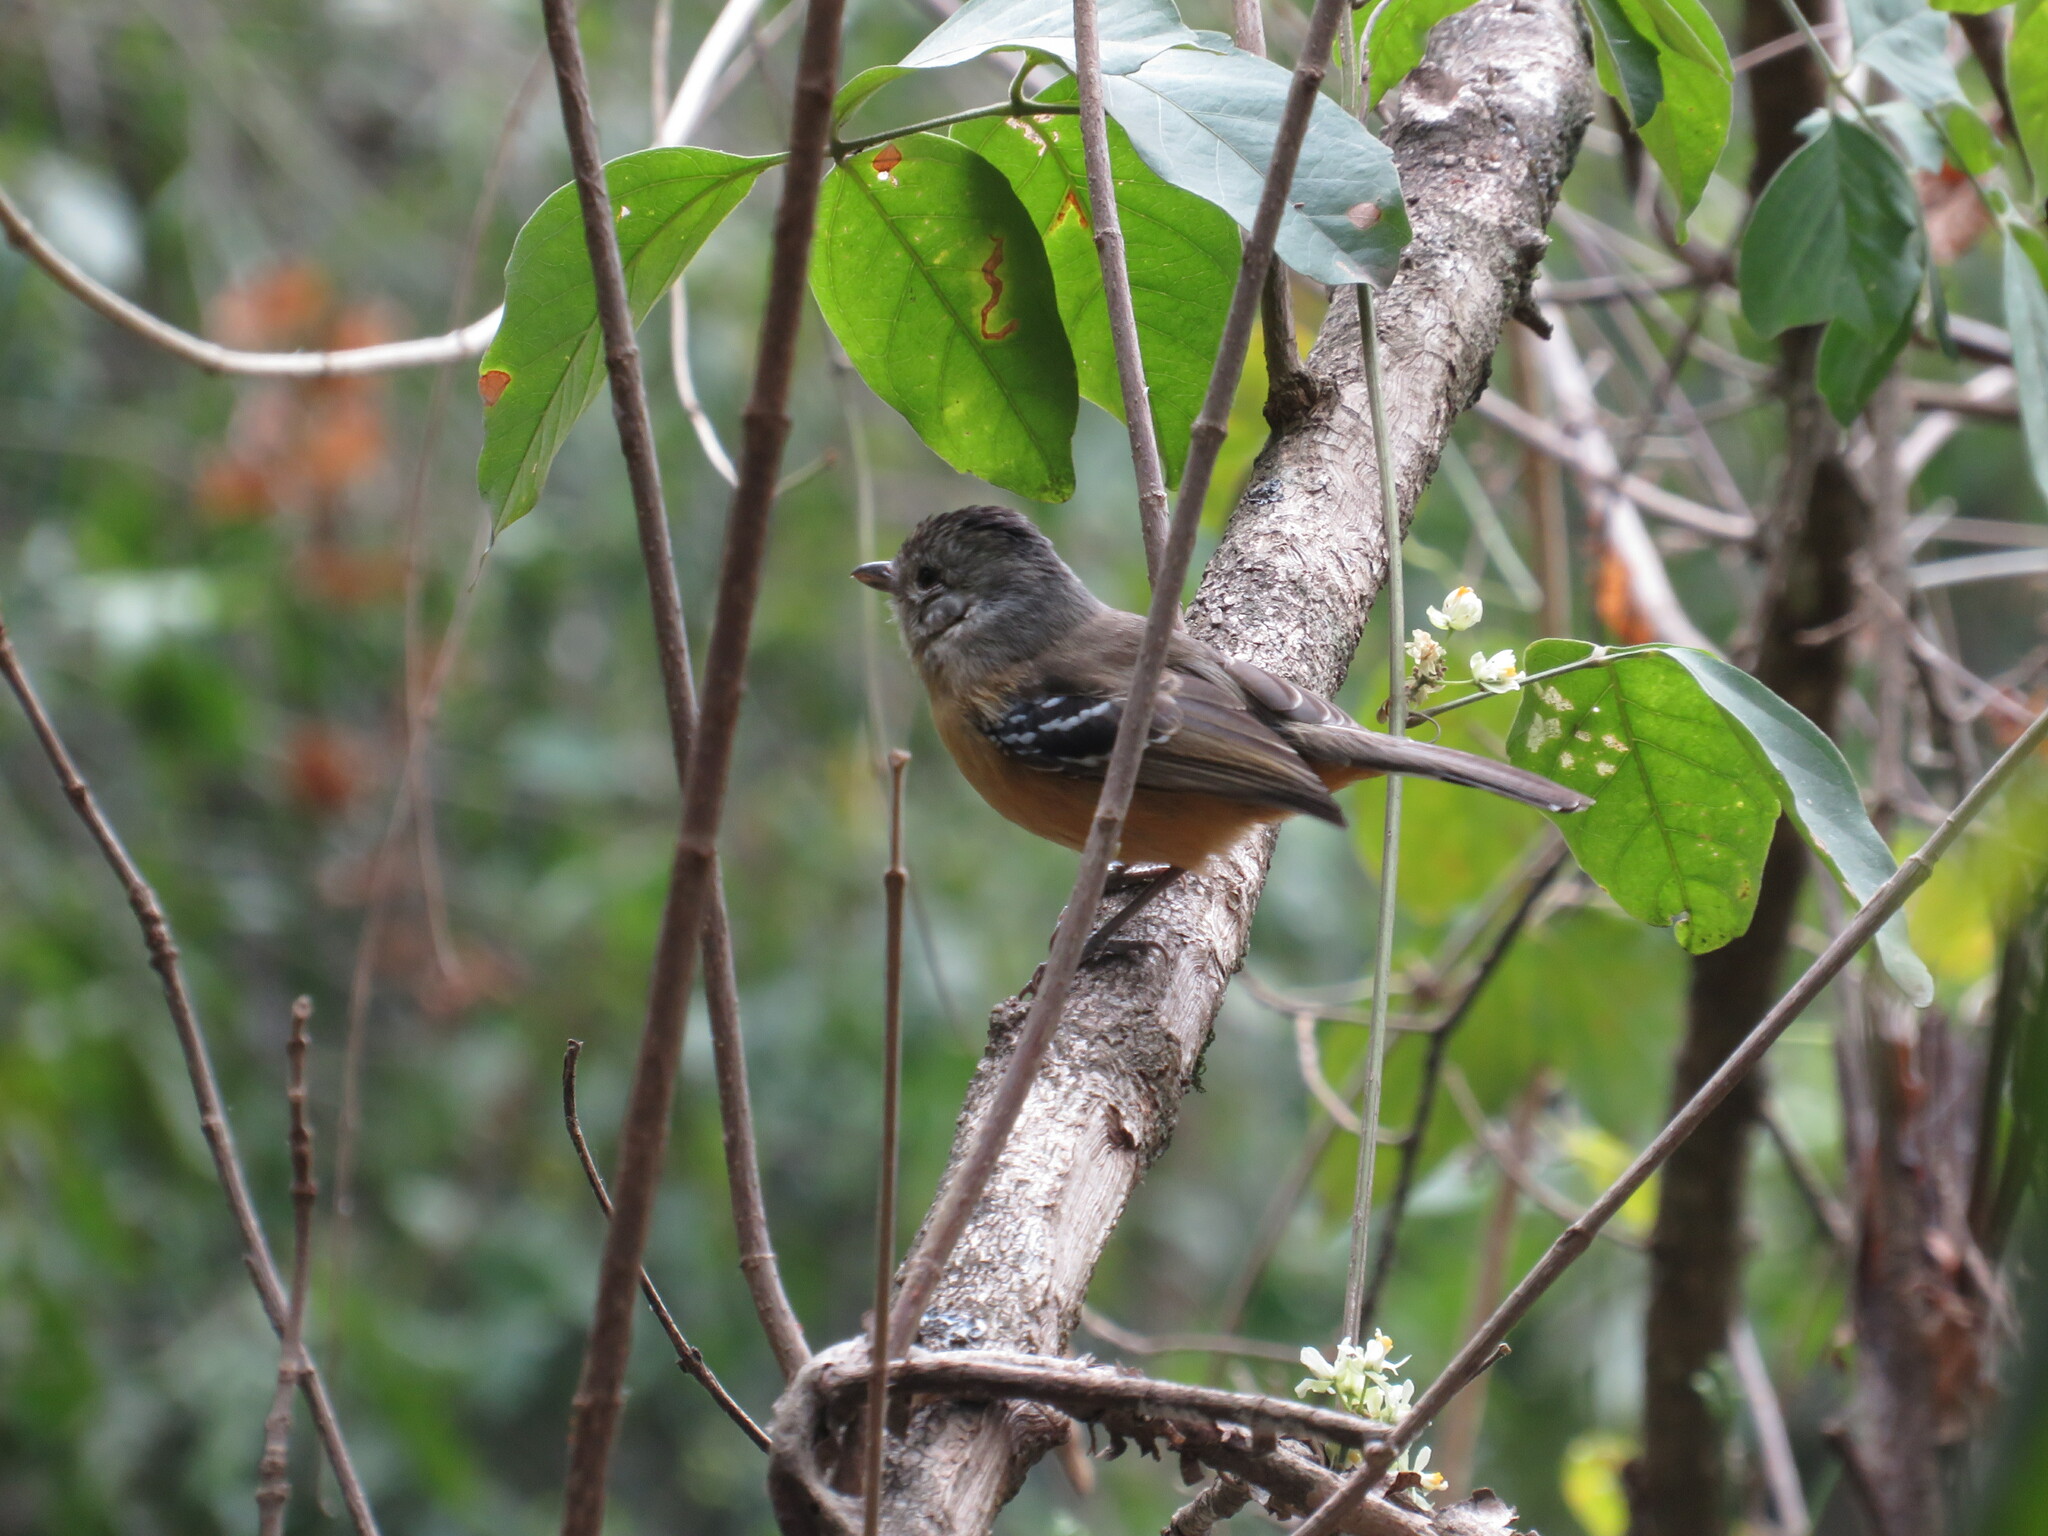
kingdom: Animalia
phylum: Chordata
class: Aves
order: Passeriformes
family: Thamnophilidae
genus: Thamnophilus
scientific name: Thamnophilus caerulescens
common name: Variable antshrike
